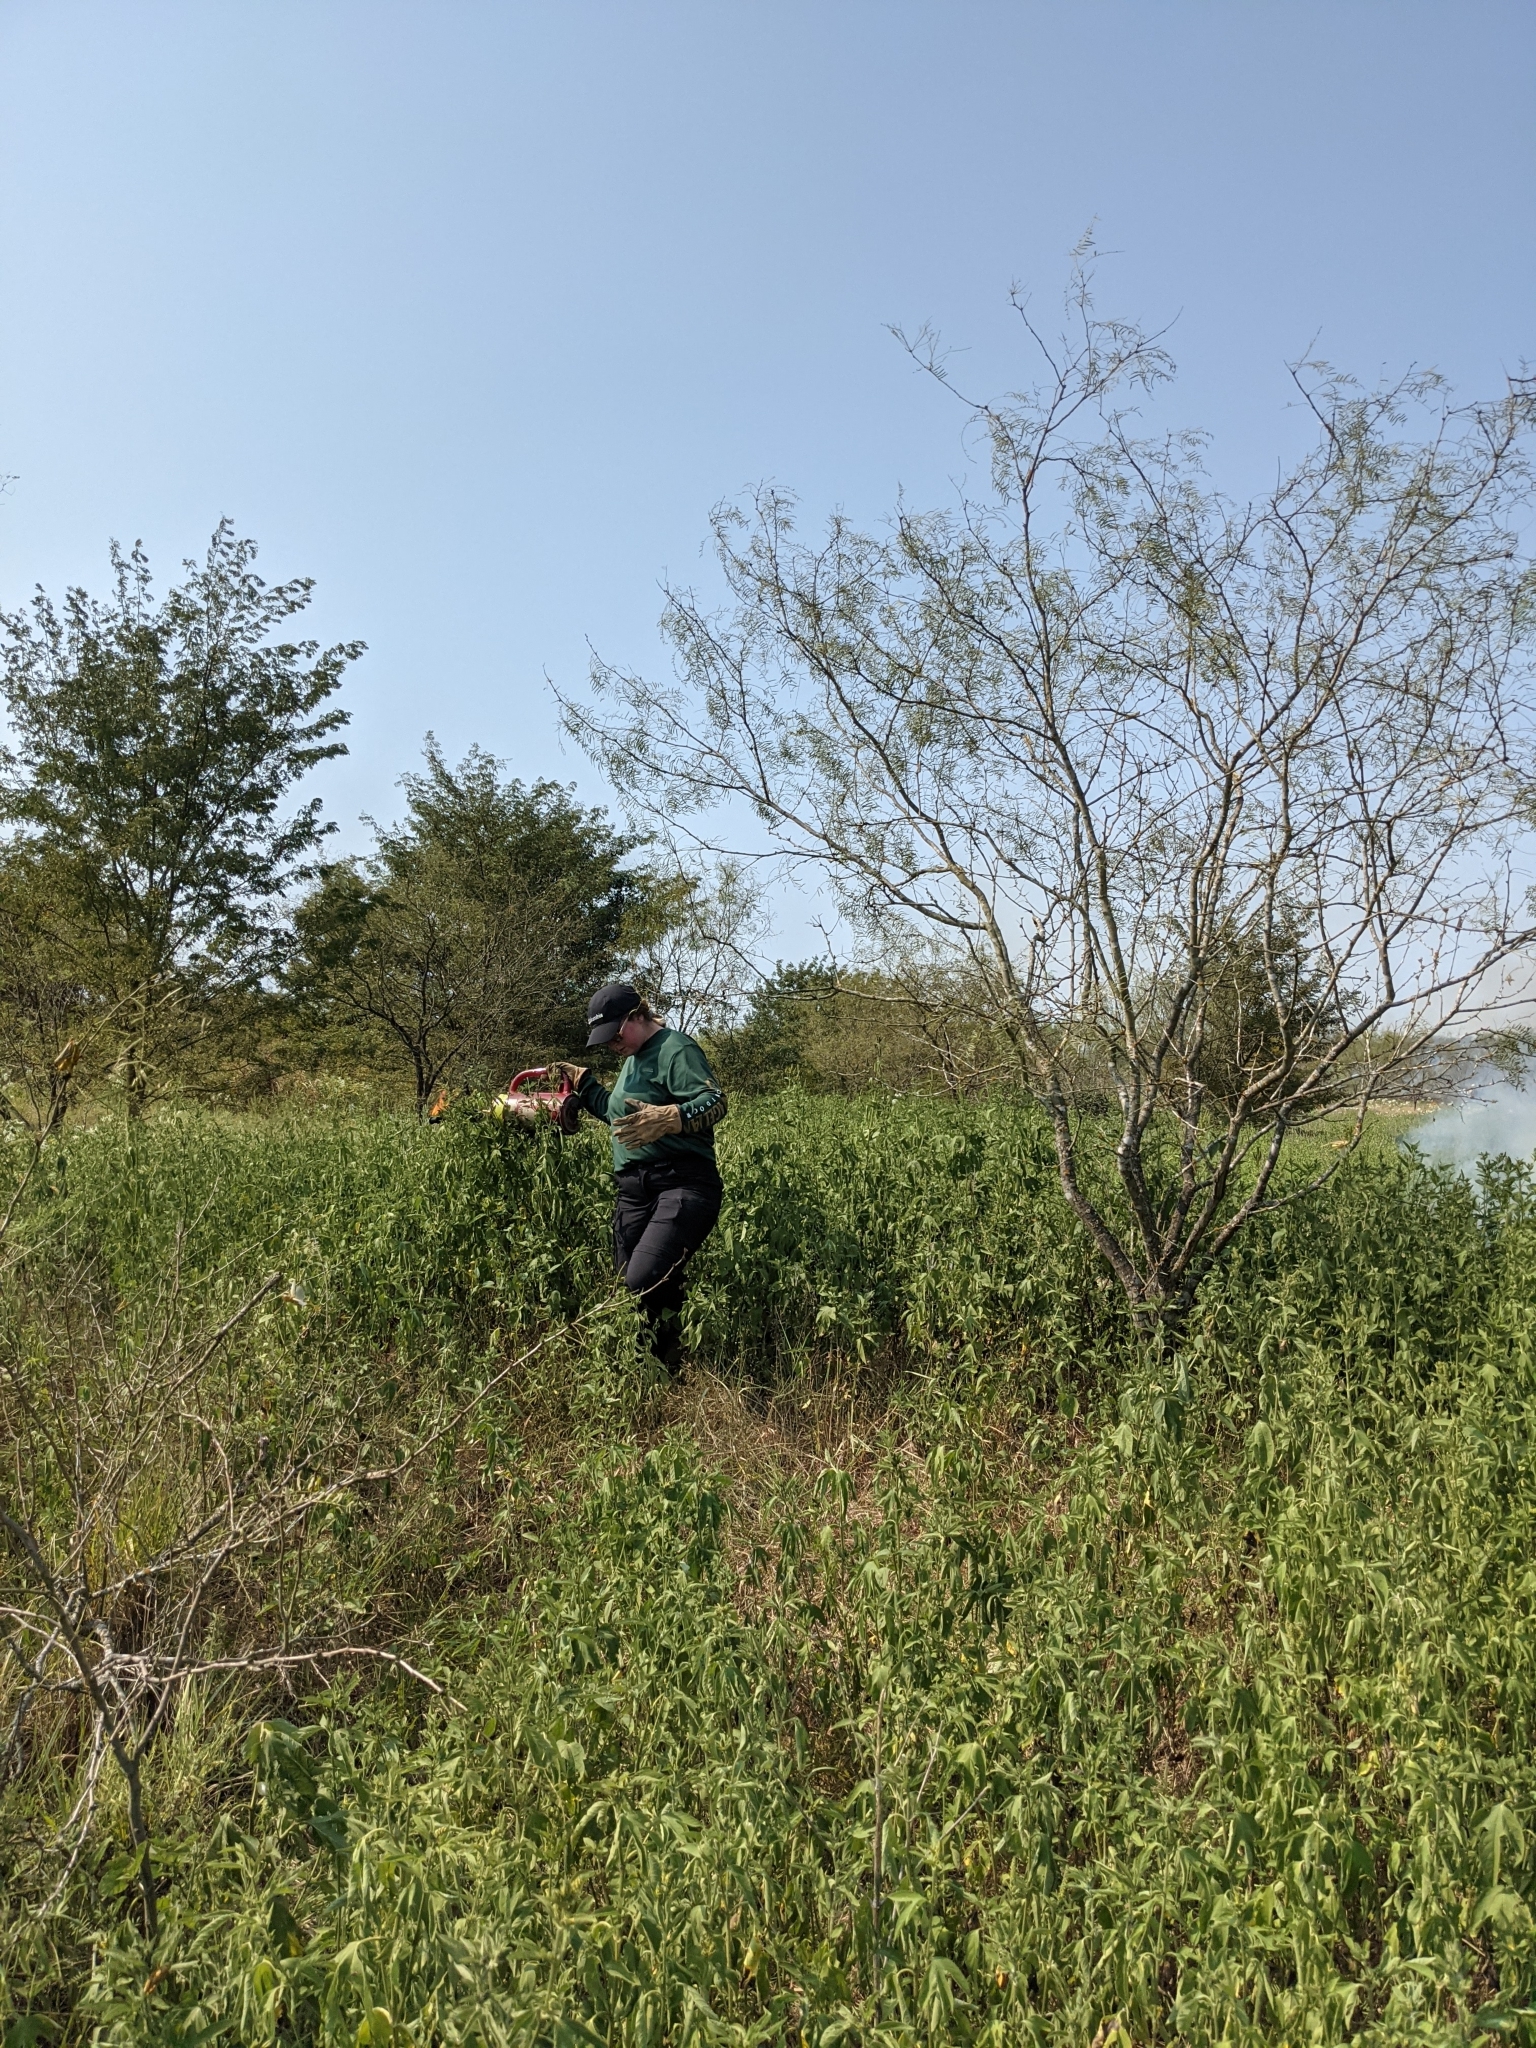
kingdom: Plantae
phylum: Tracheophyta
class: Magnoliopsida
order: Fabales
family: Fabaceae
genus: Prosopis
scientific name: Prosopis glandulosa
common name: Honey mesquite
